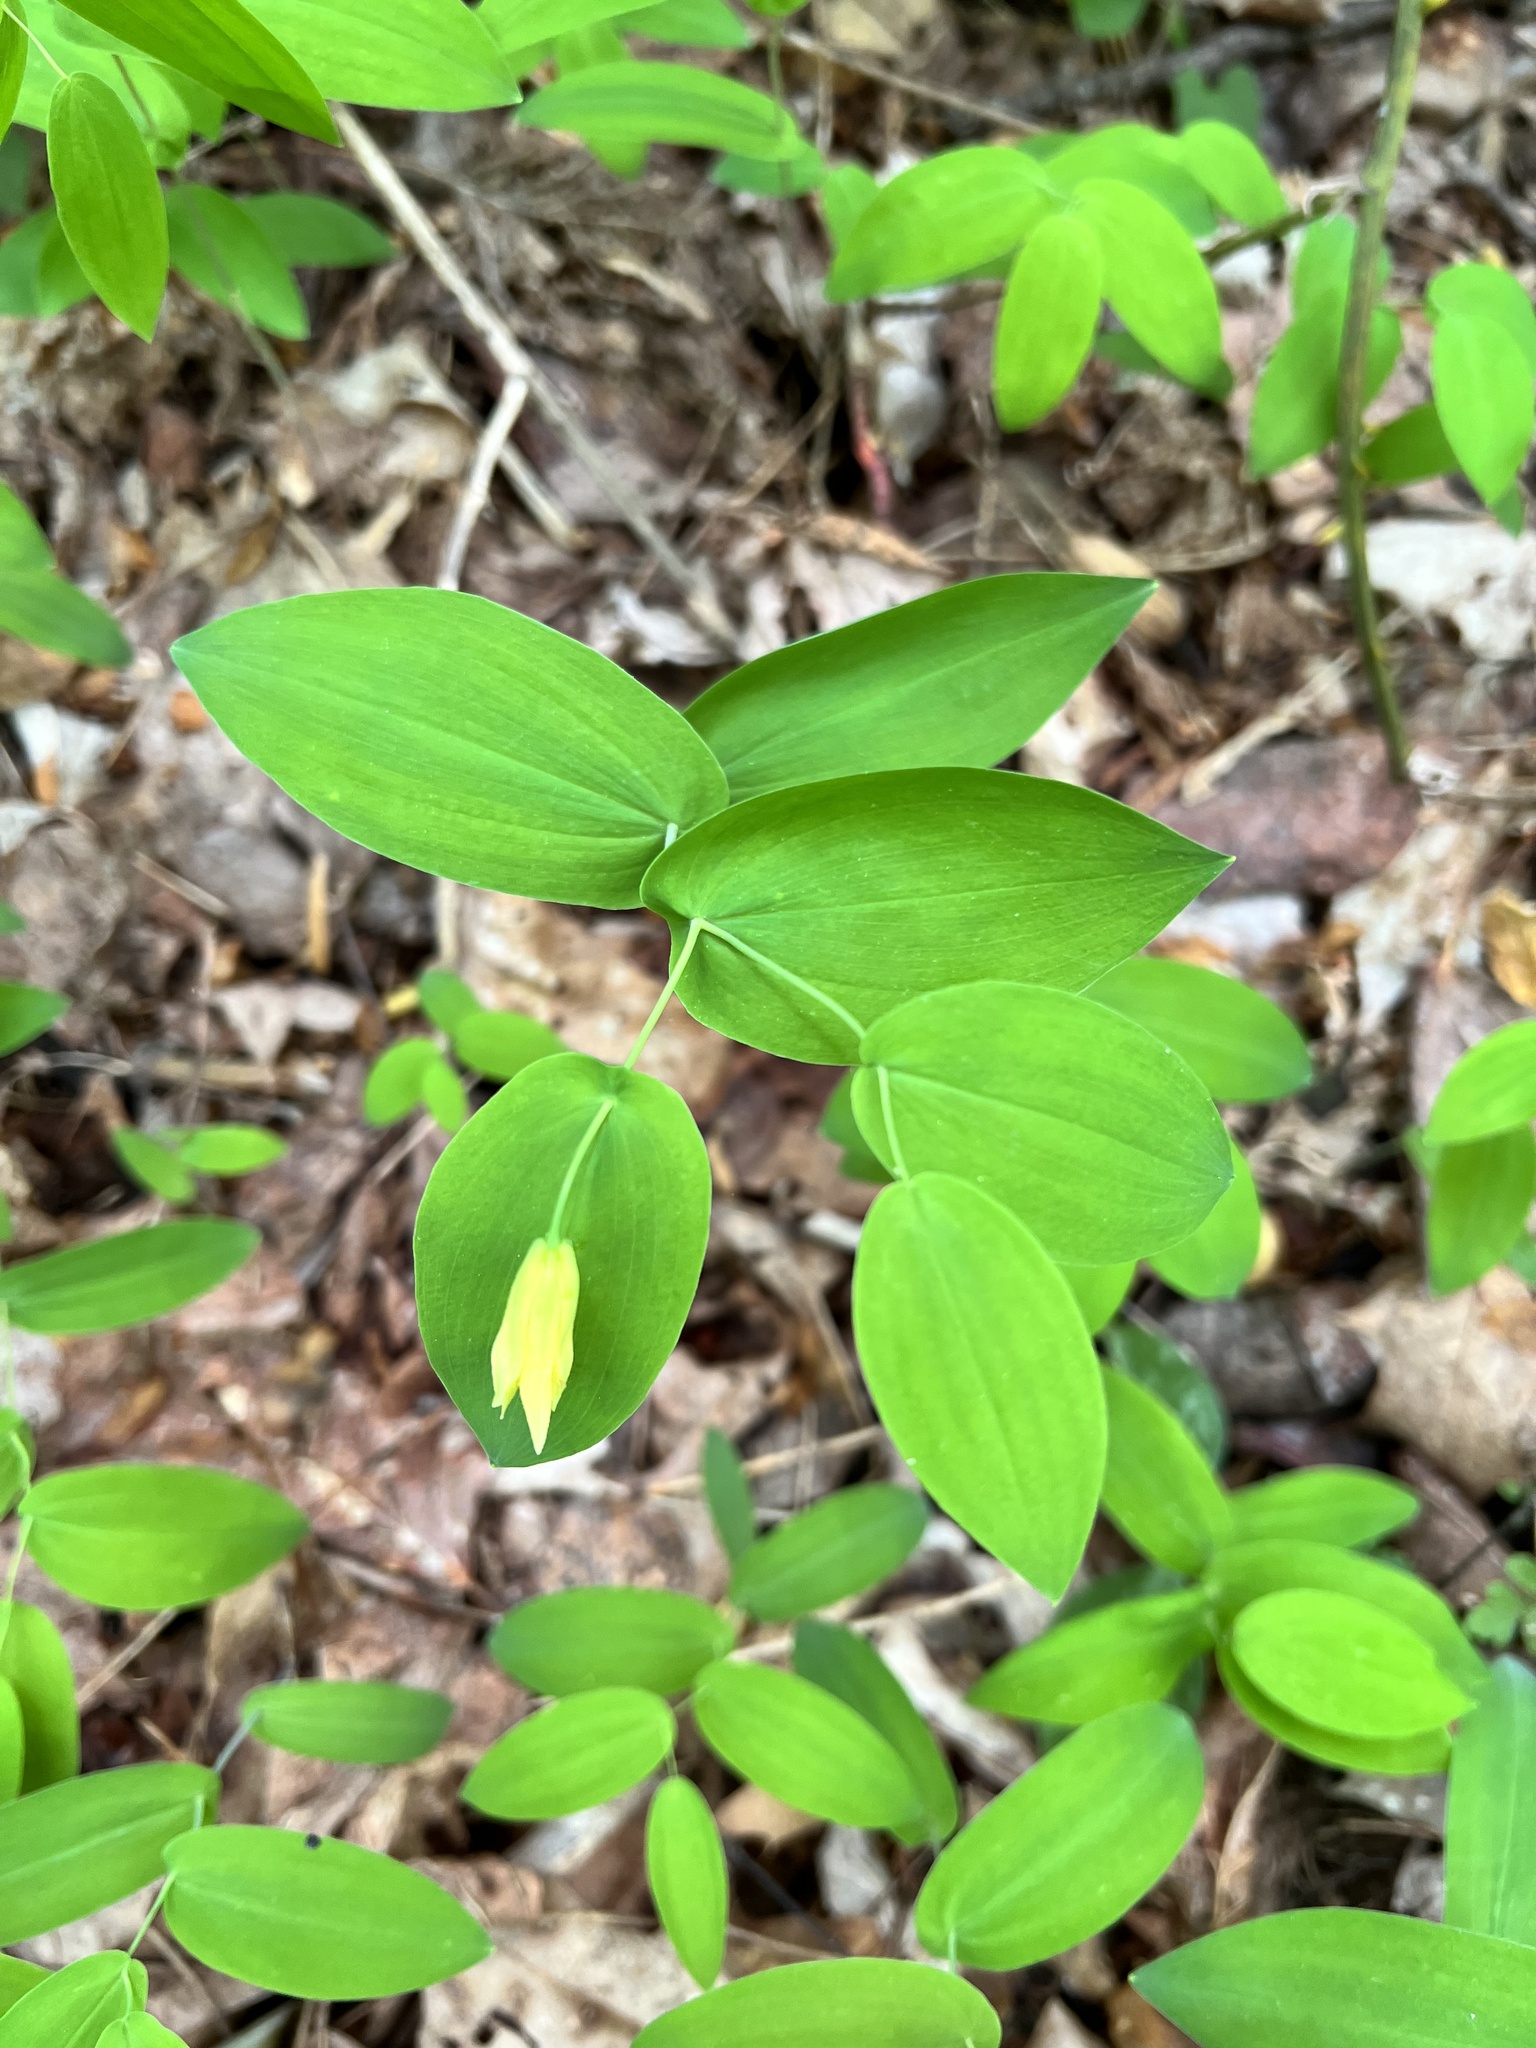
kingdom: Plantae
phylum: Tracheophyta
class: Liliopsida
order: Liliales
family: Colchicaceae
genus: Uvularia
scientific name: Uvularia perfoliata
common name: Perfoliate bellwort
